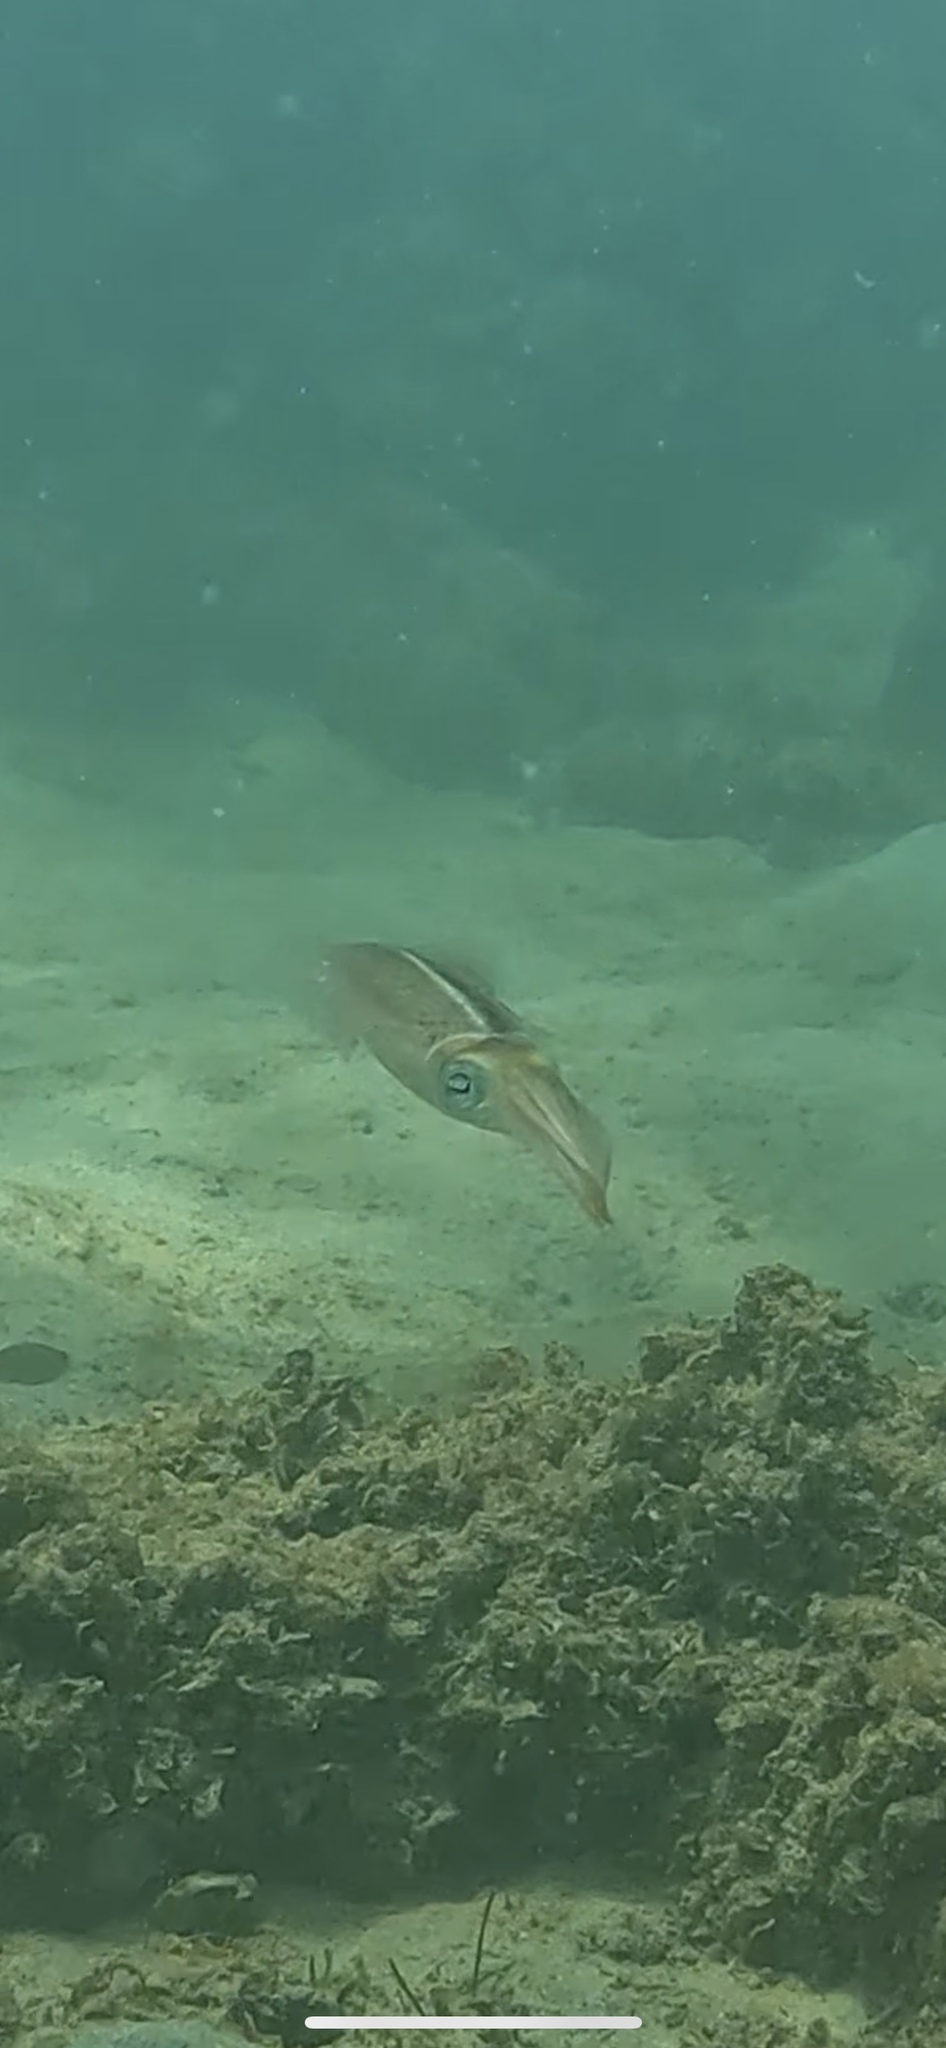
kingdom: Animalia
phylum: Mollusca
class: Cephalopoda
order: Myopsida
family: Loliginidae
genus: Sepioteuthis
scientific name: Sepioteuthis sepioidea
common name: Caribbean reef squid
